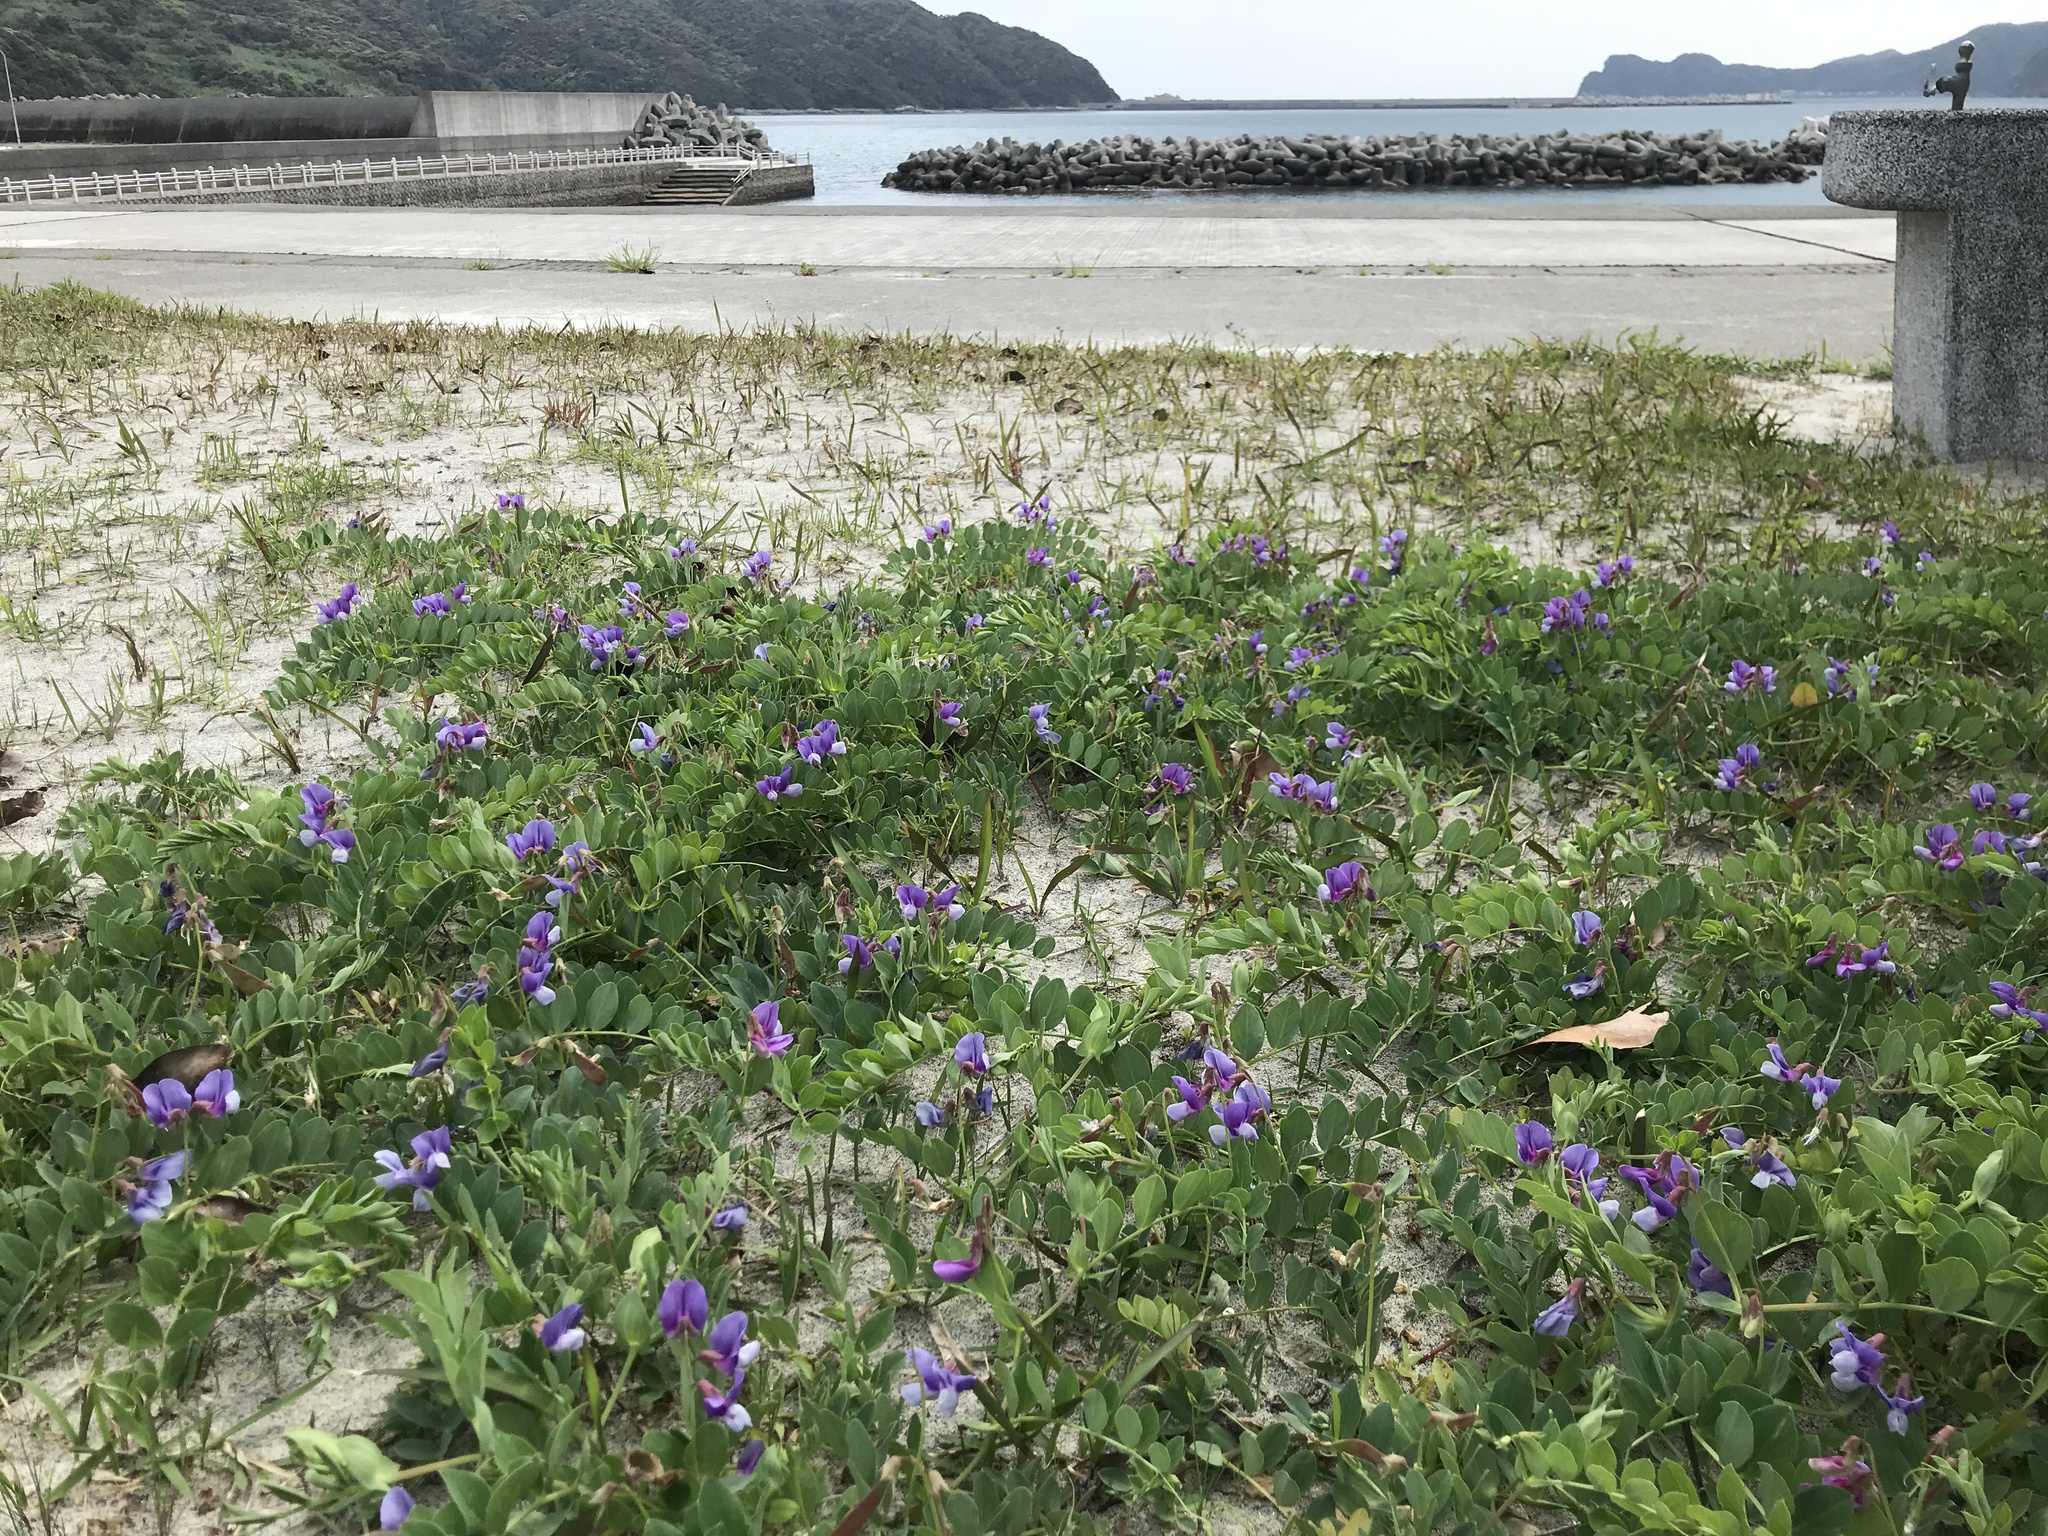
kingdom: Plantae
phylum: Tracheophyta
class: Magnoliopsida
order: Fabales
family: Fabaceae
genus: Lathyrus
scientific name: Lathyrus japonicus
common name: Sea pea
